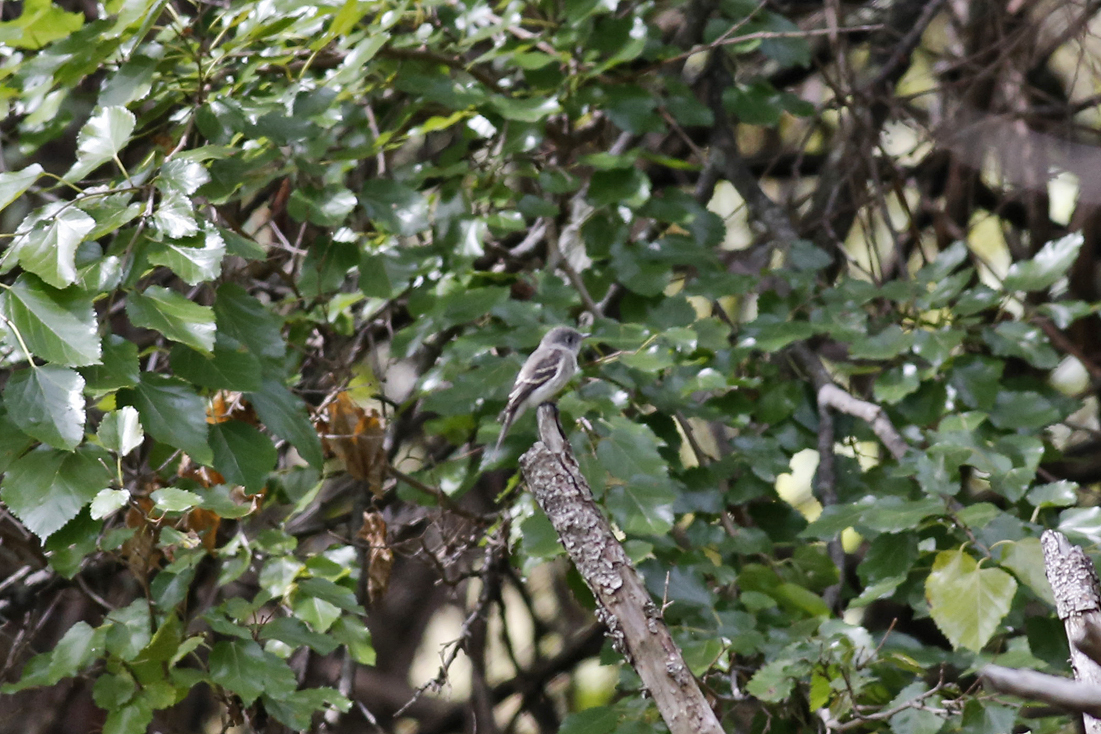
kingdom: Animalia
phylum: Chordata
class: Aves
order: Passeriformes
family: Tyrannidae
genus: Empidonax
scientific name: Empidonax minimus
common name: Least flycatcher
